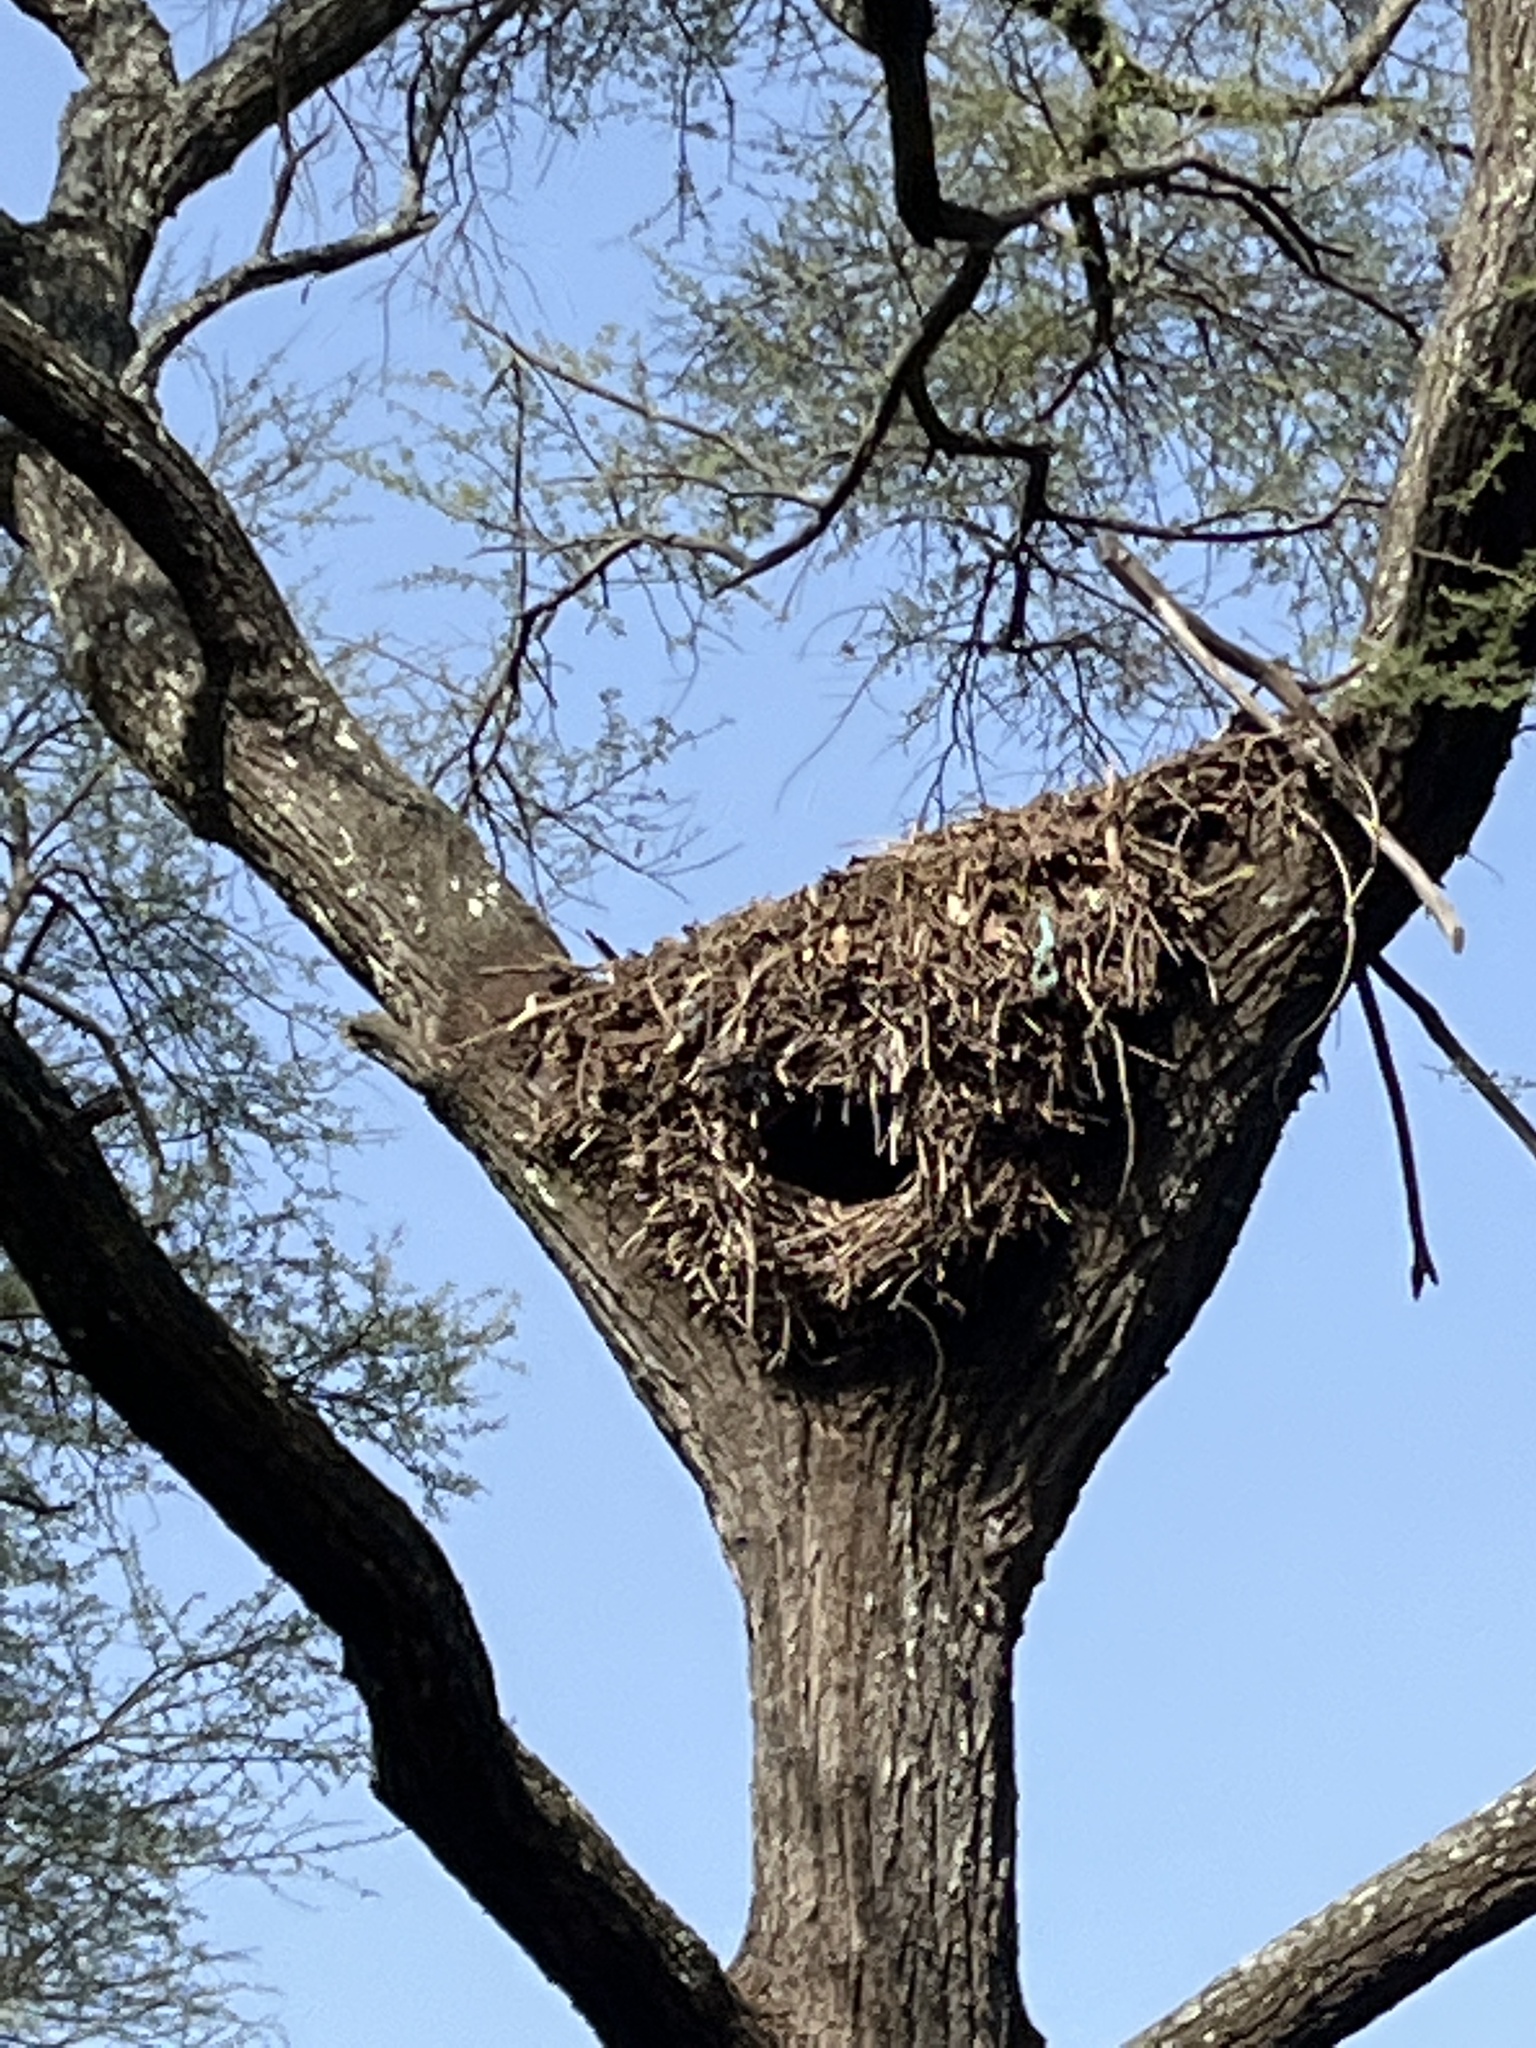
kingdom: Animalia
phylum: Chordata
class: Aves
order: Pelecaniformes
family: Scopidae
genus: Scopus
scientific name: Scopus umbretta
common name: Hamerkop
